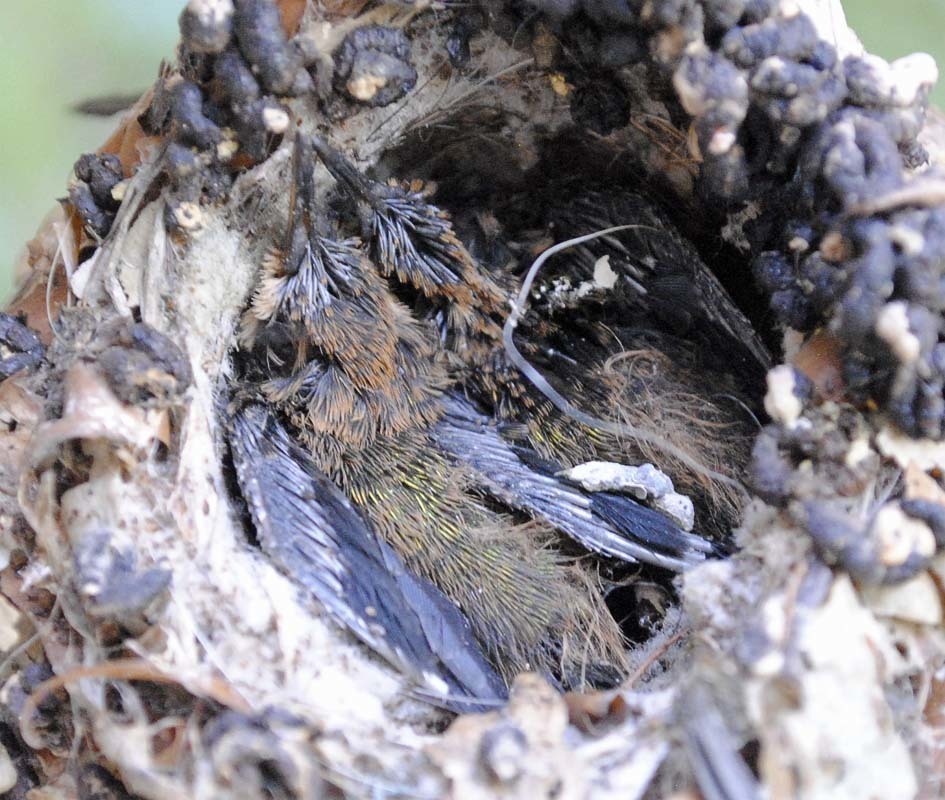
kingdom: Animalia
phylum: Chordata
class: Aves
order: Apodiformes
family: Trochilidae
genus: Cynanthus
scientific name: Cynanthus latirostris
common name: Broad-billed hummingbird
